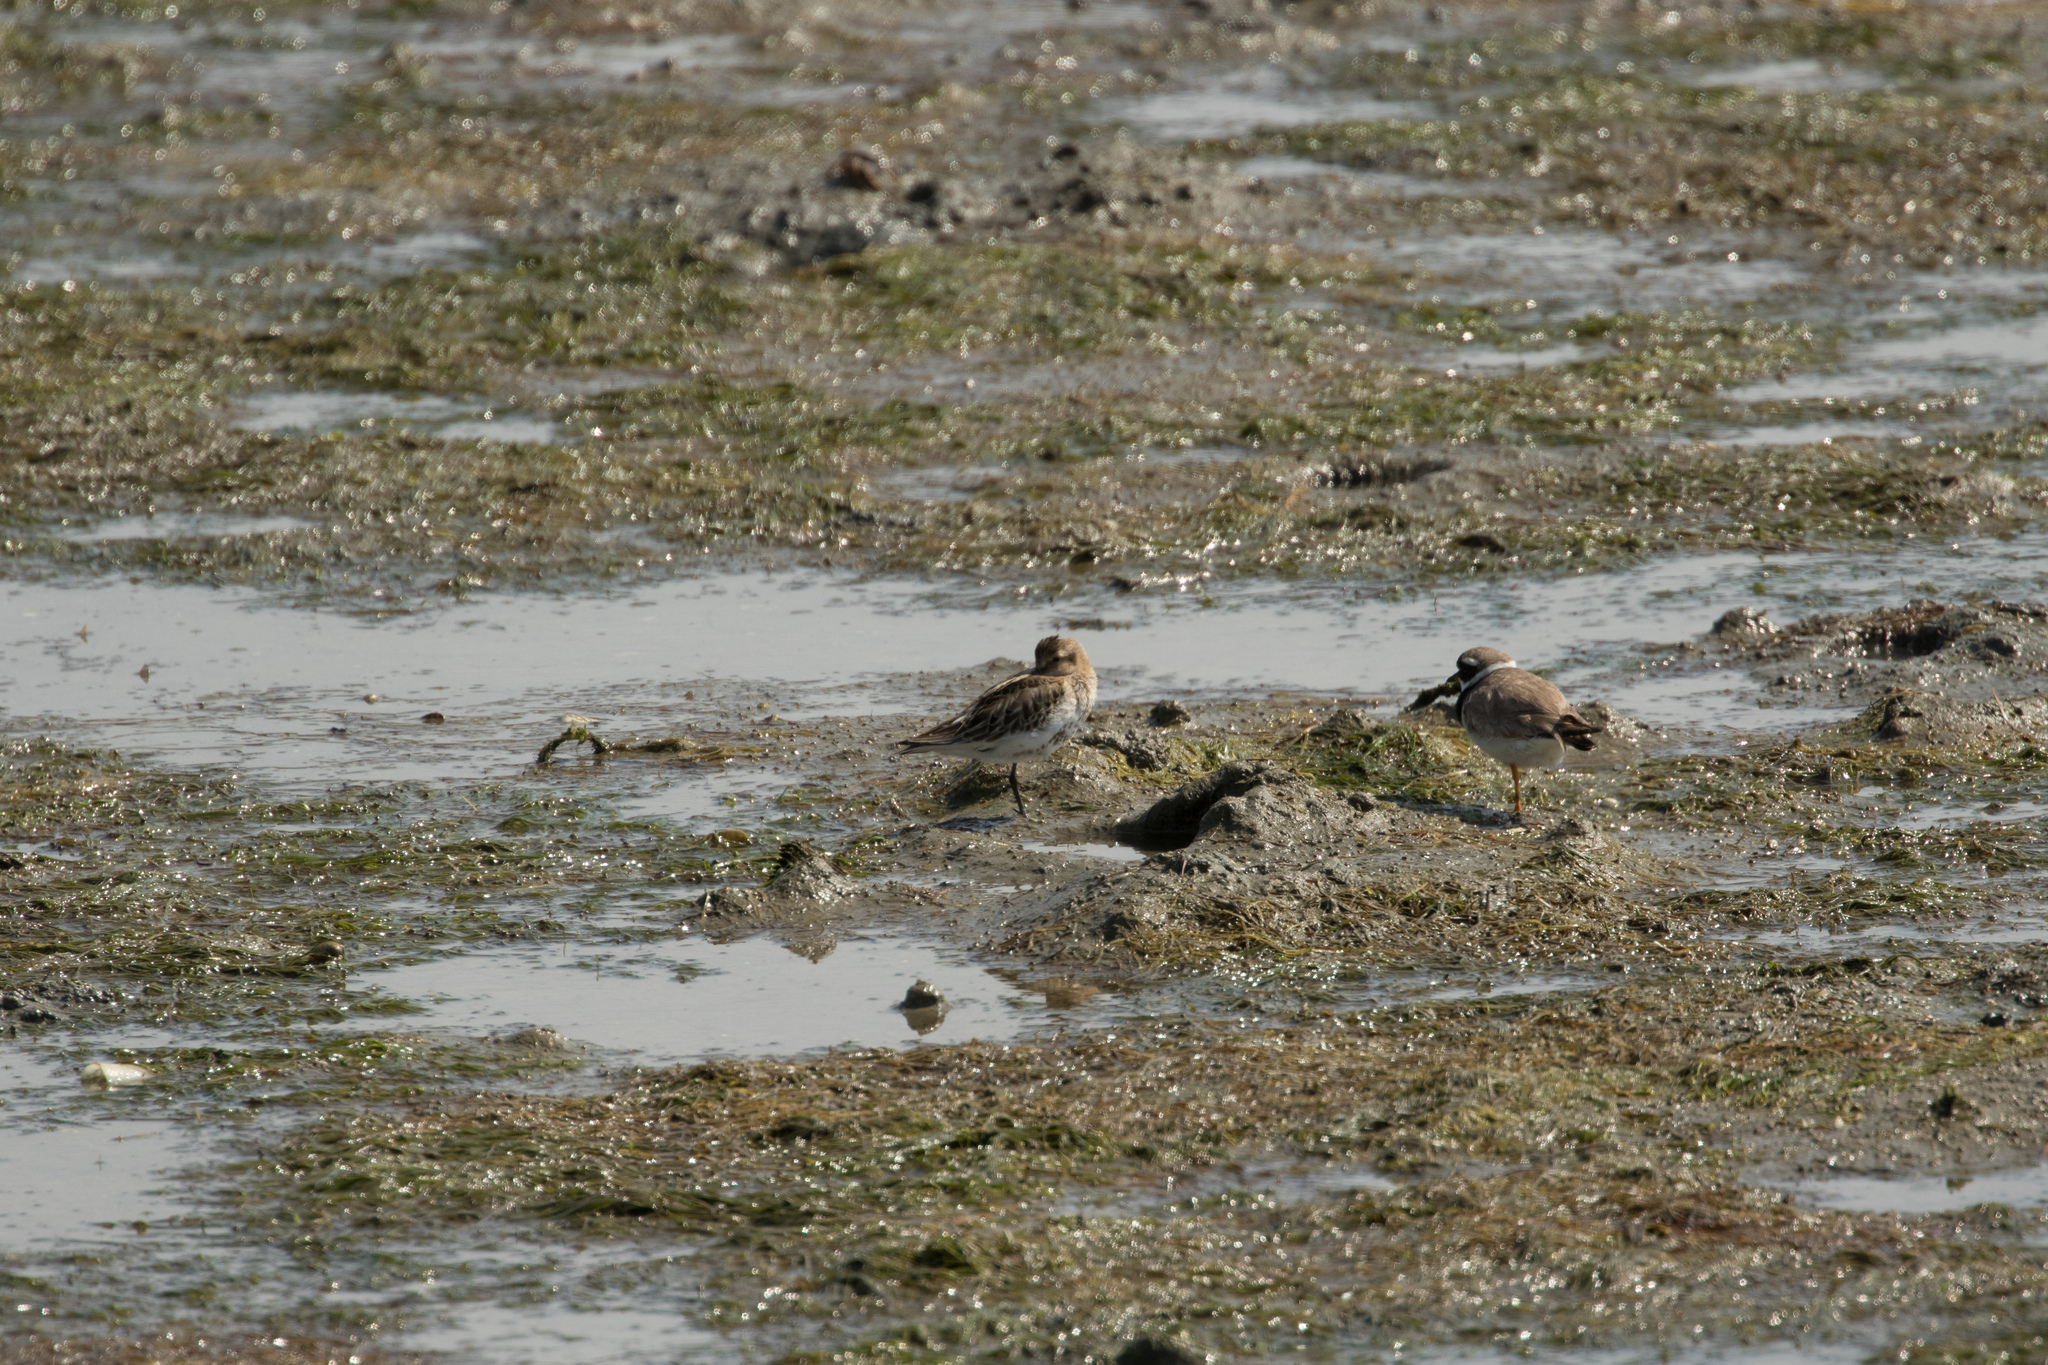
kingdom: Animalia
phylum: Chordata
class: Aves
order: Charadriiformes
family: Scolopacidae
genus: Calidris
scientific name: Calidris alpina
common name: Dunlin
